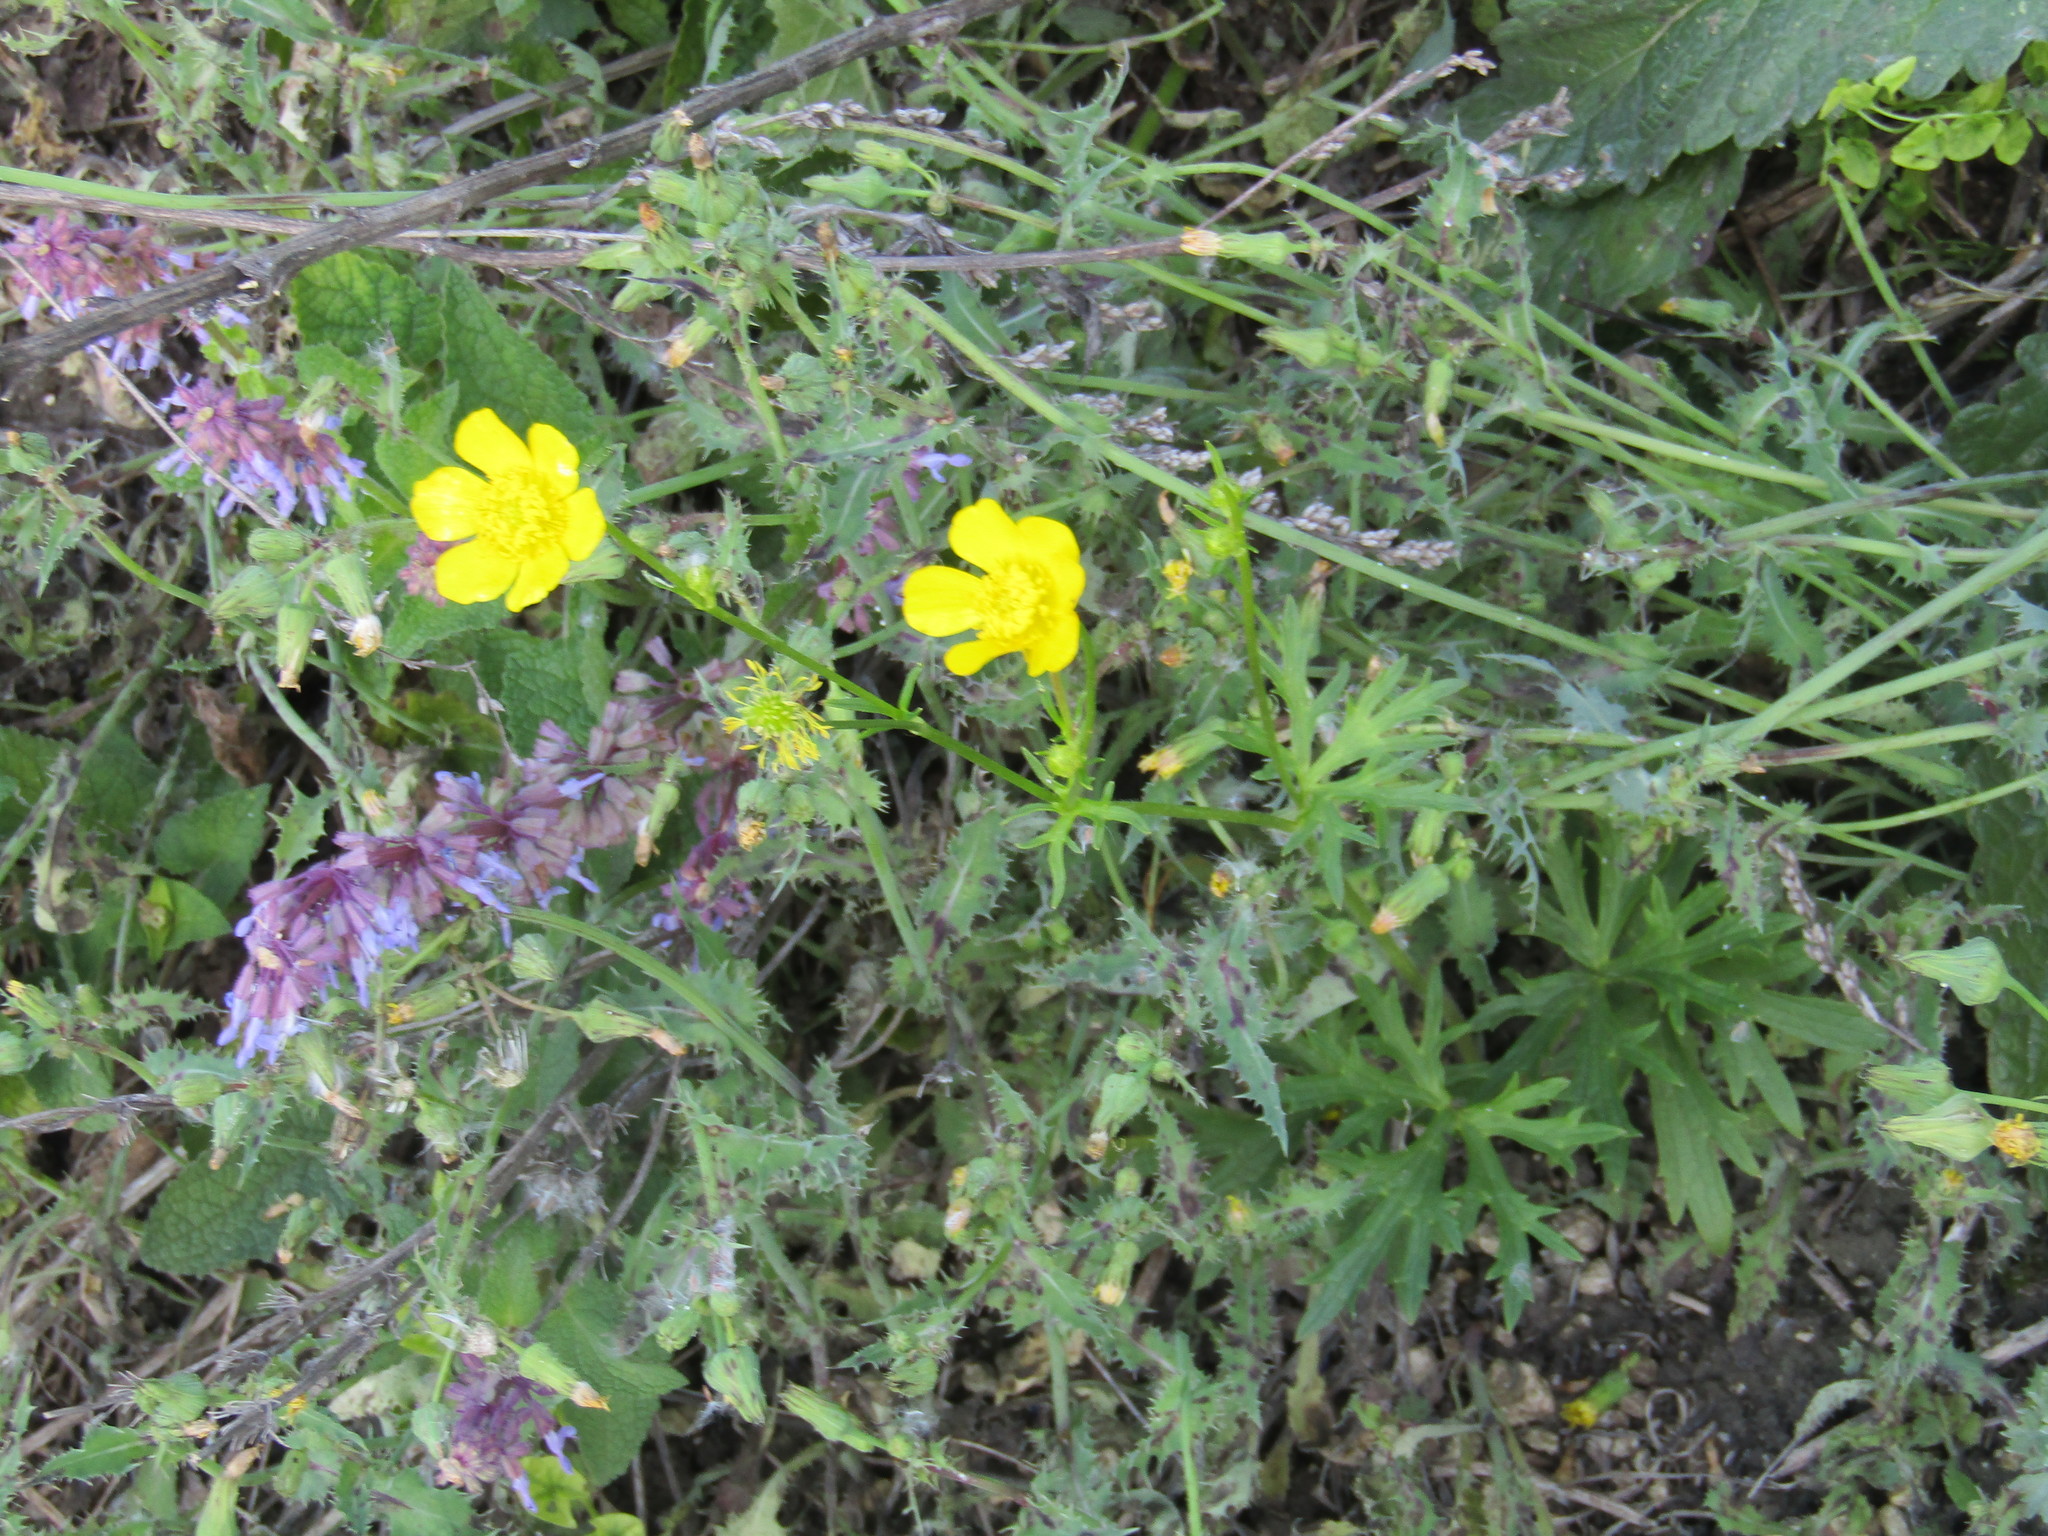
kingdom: Plantae
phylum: Tracheophyta
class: Magnoliopsida
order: Ranunculales
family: Ranunculaceae
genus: Ranunculus
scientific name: Ranunculus polyanthemos
